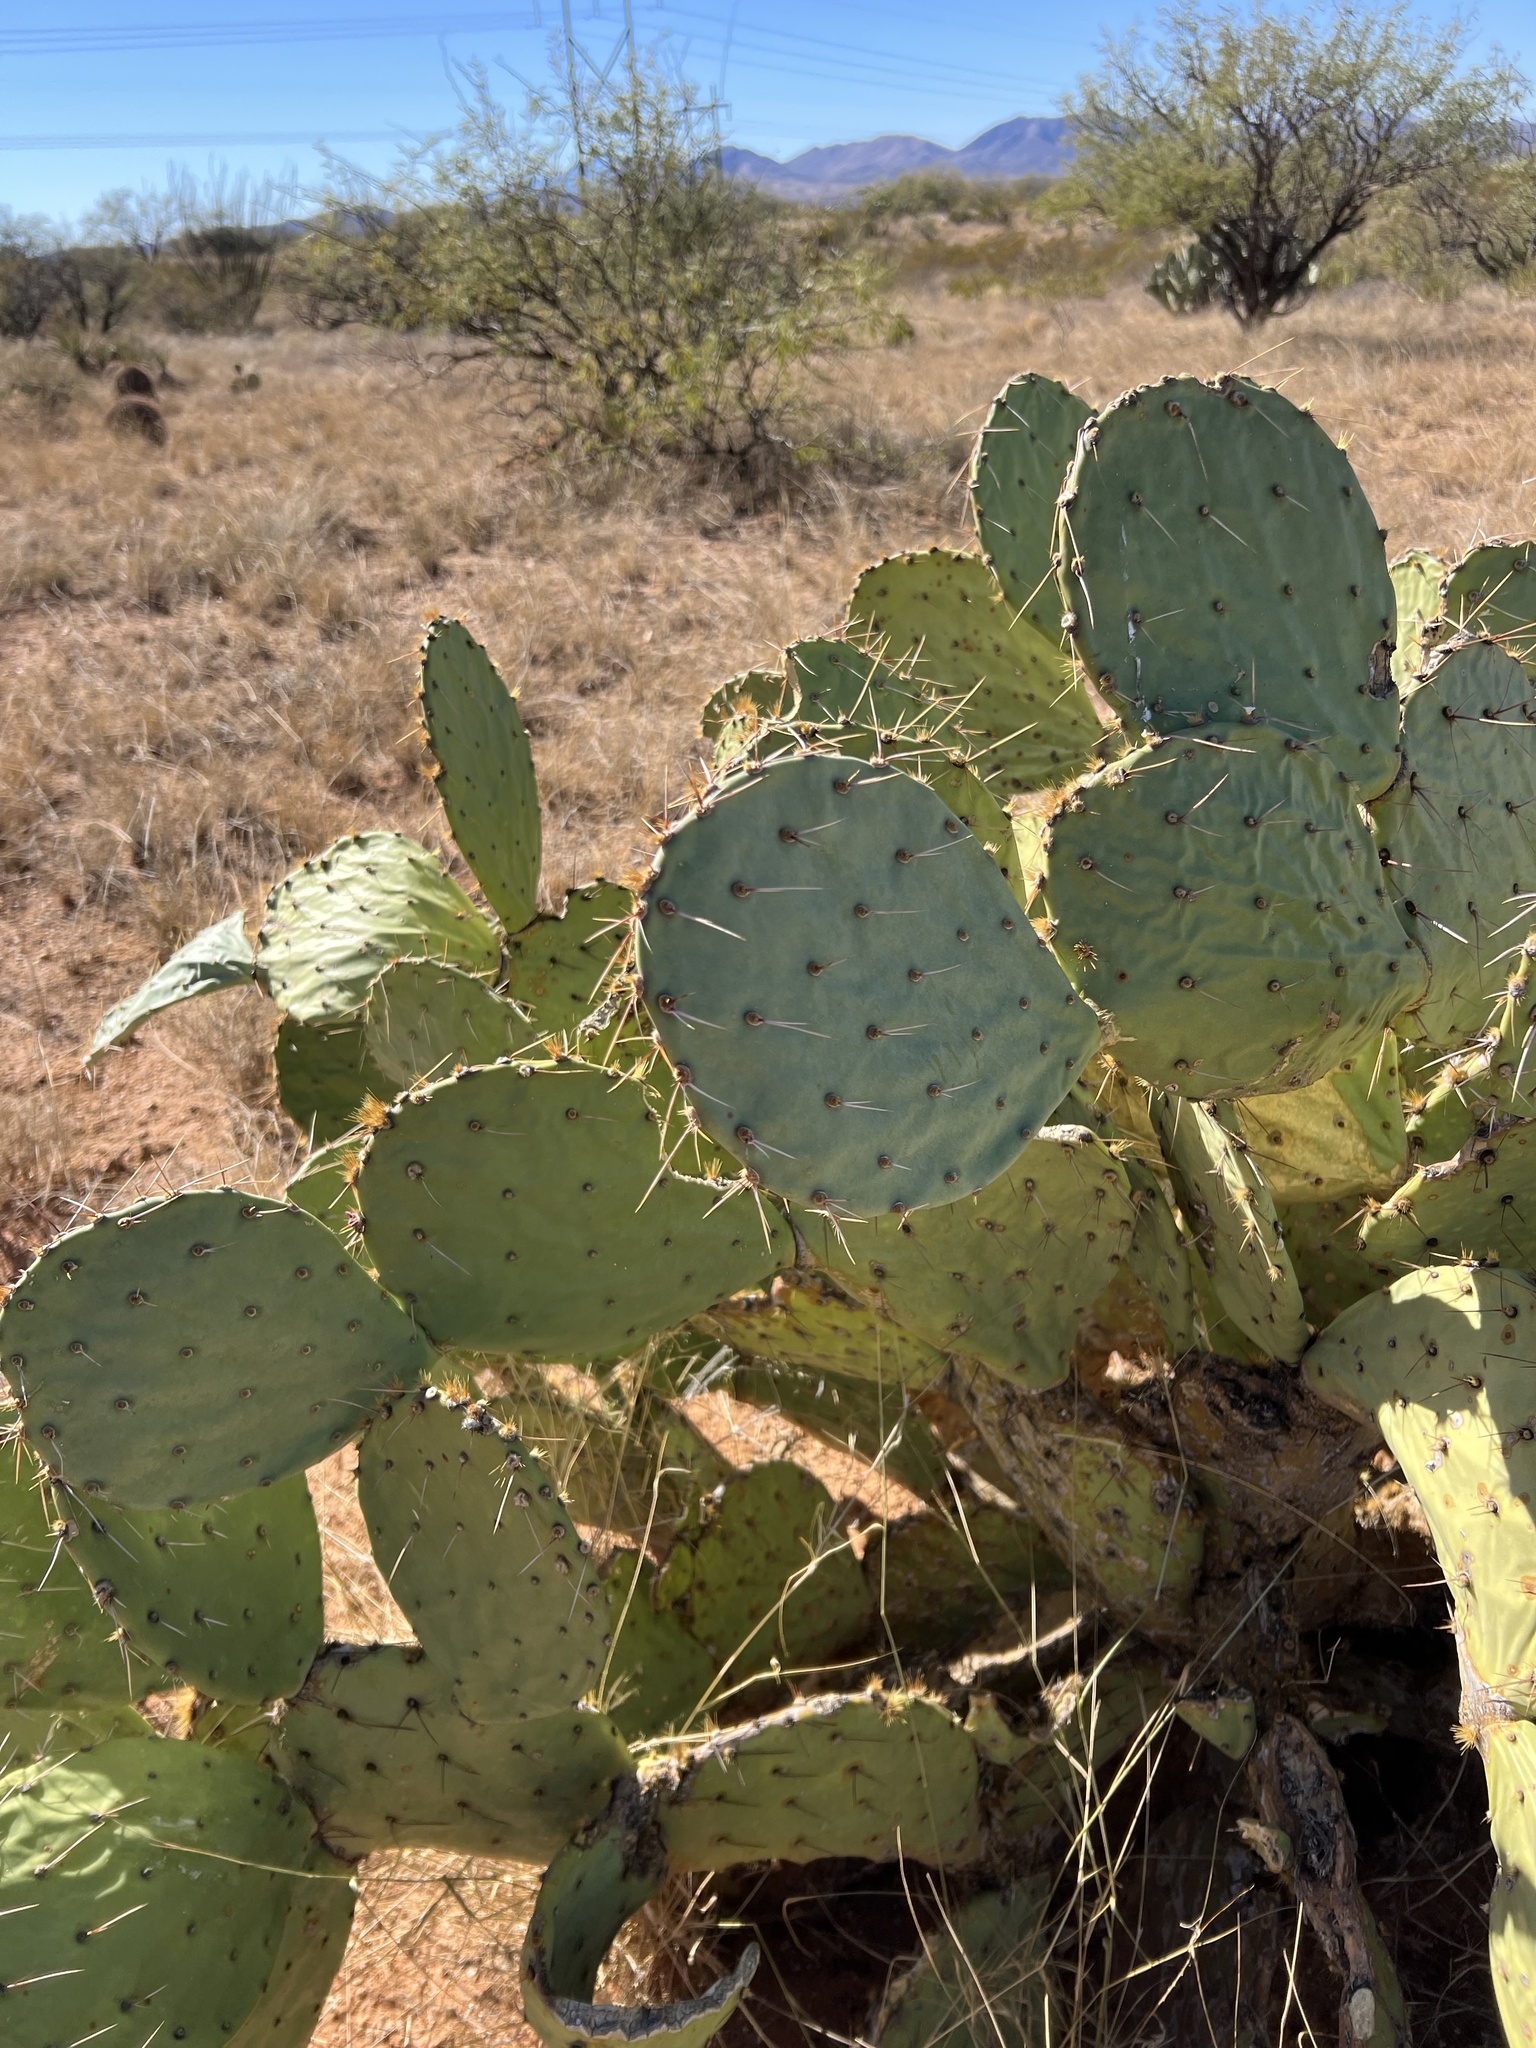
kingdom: Plantae
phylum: Tracheophyta
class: Magnoliopsida
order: Caryophyllales
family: Cactaceae
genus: Opuntia
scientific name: Opuntia engelmannii
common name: Cactus-apple
